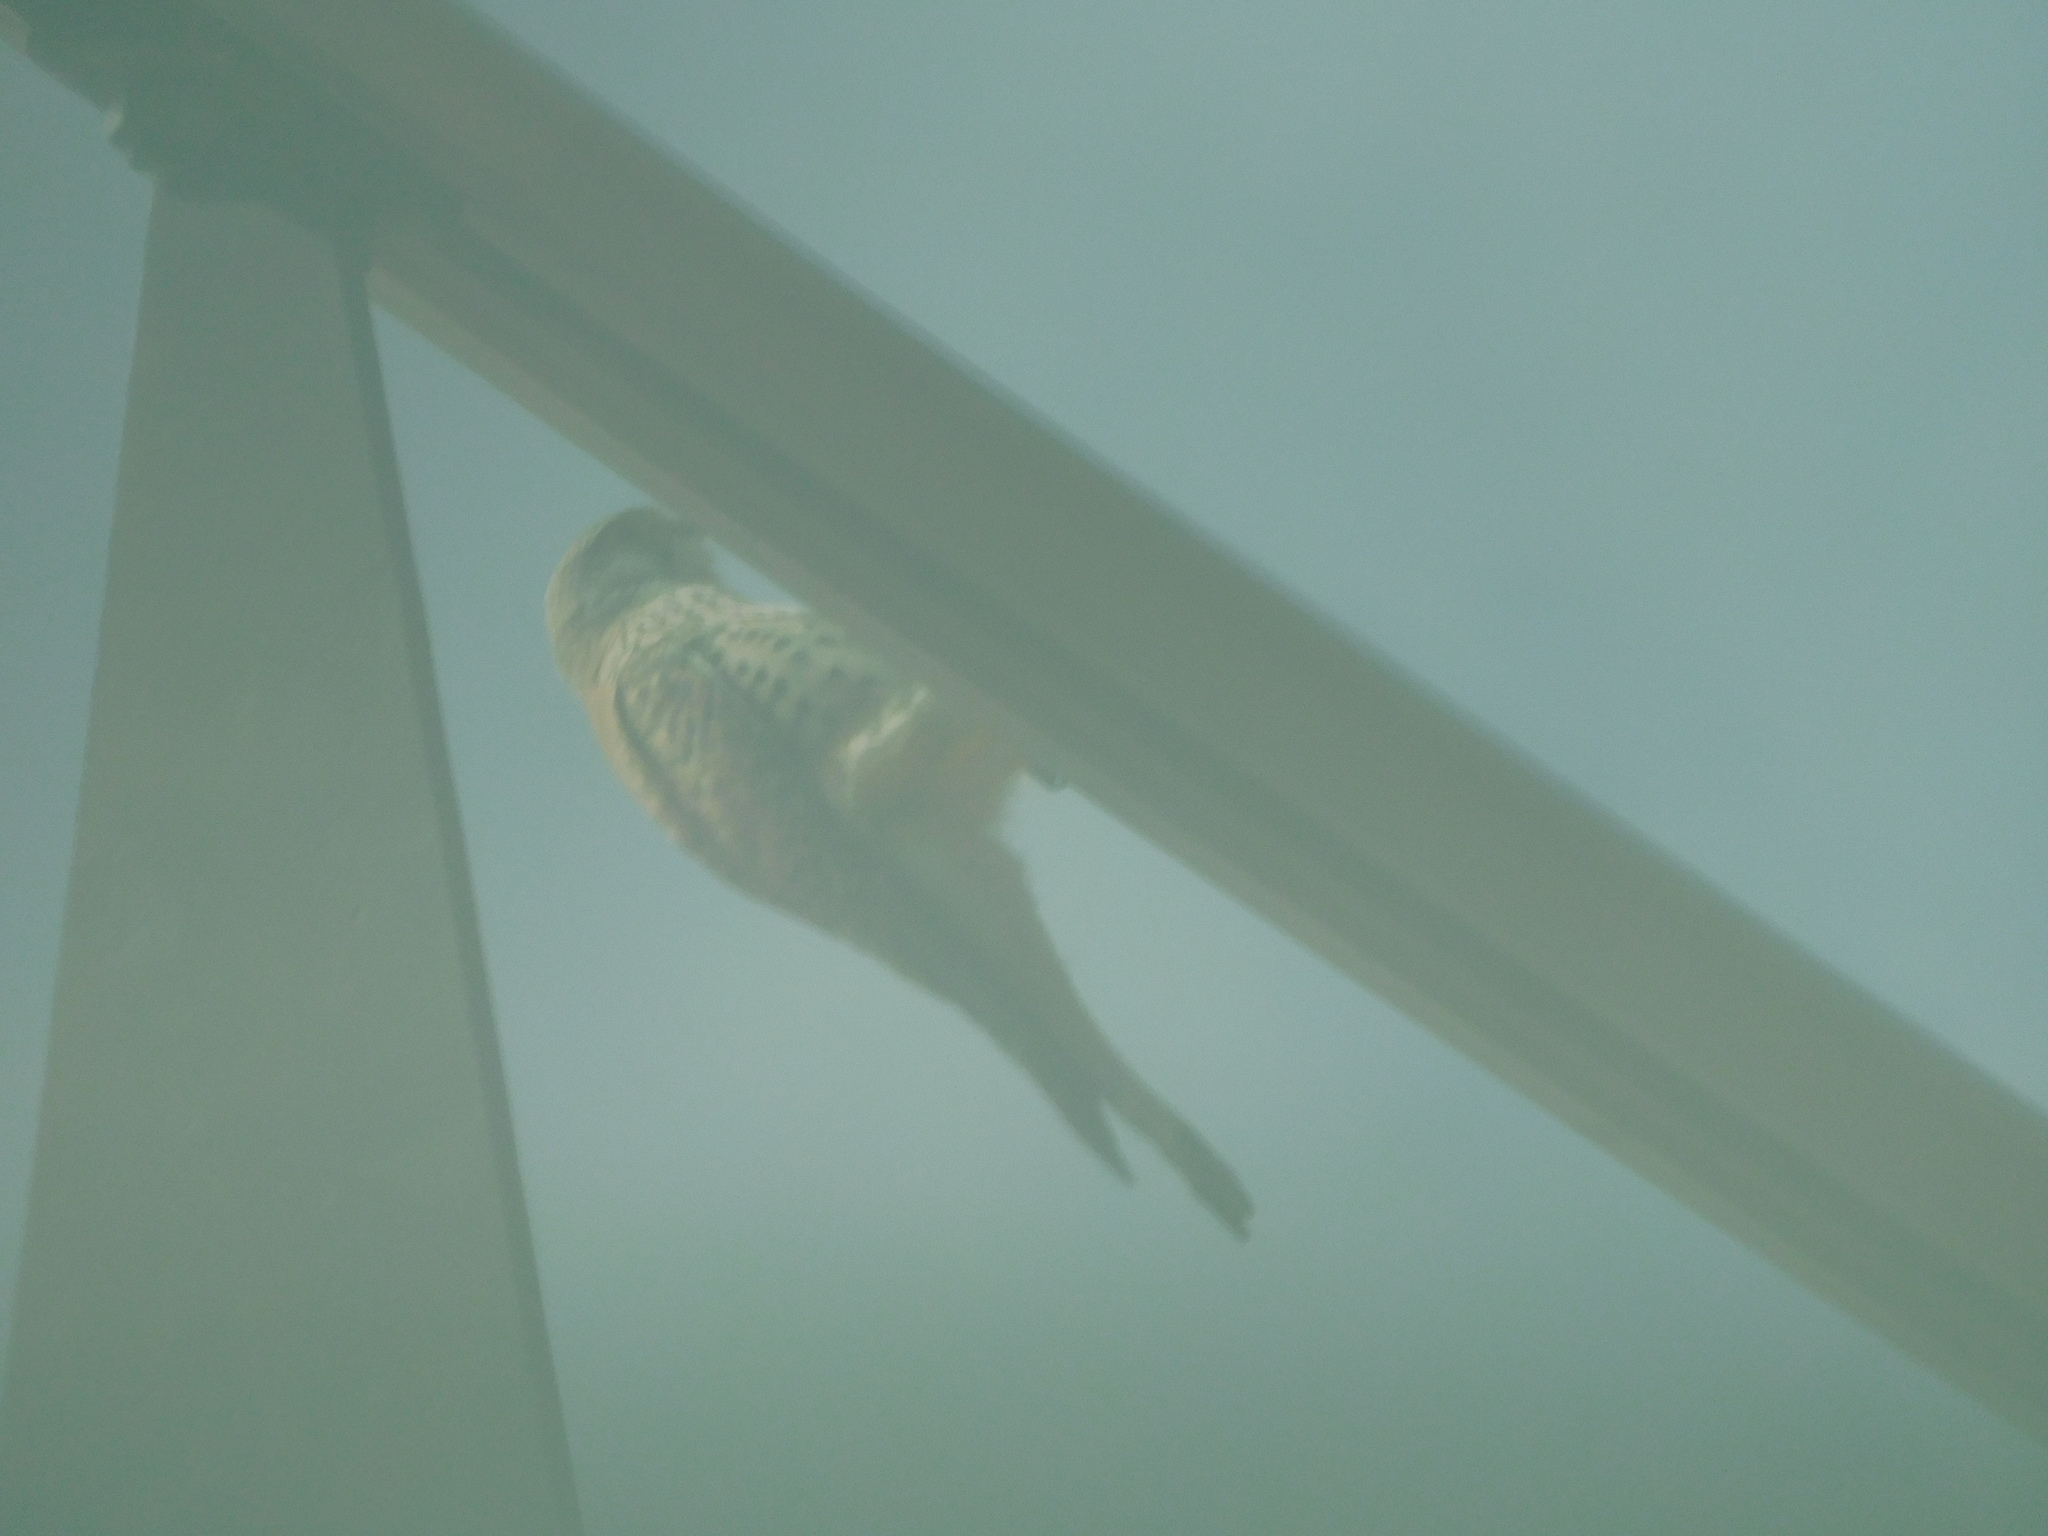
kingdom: Animalia
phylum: Chordata
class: Aves
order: Falconiformes
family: Falconidae
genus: Falco
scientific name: Falco tinnunculus
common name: Common kestrel
